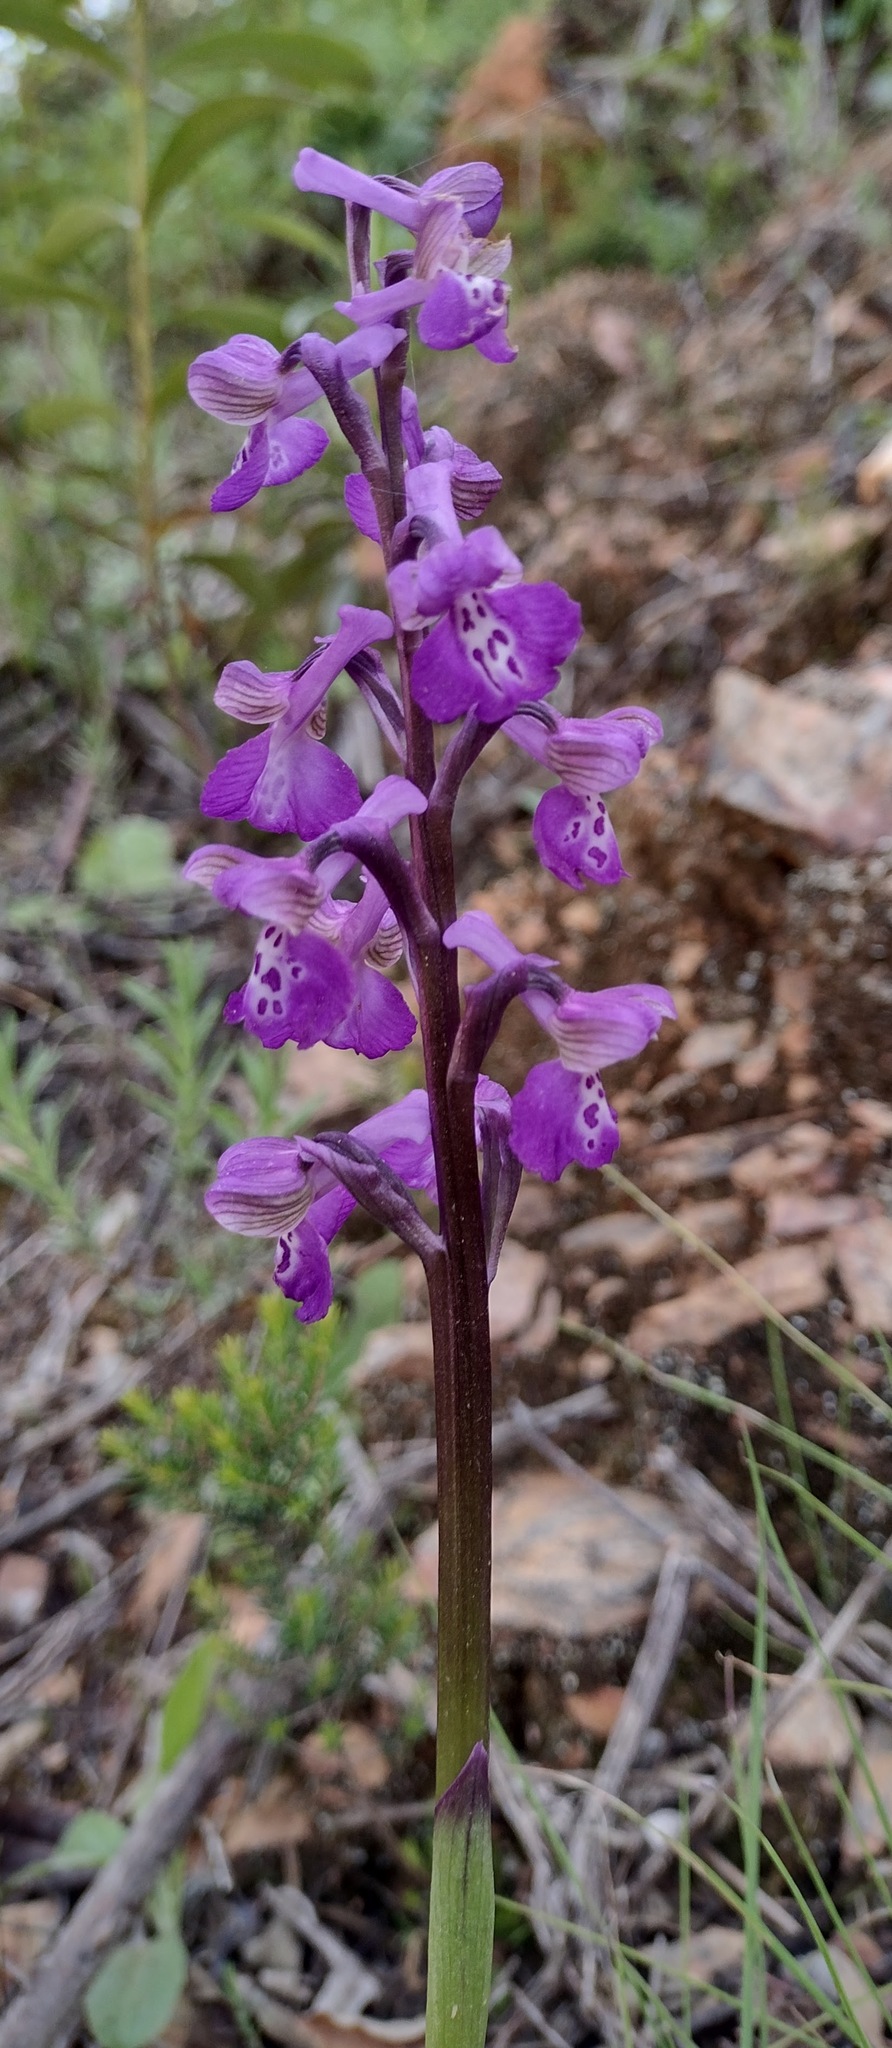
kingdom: Plantae
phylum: Tracheophyta
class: Liliopsida
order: Asparagales
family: Orchidaceae
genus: Anacamptis
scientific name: Anacamptis morio
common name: Green-winged orchid
